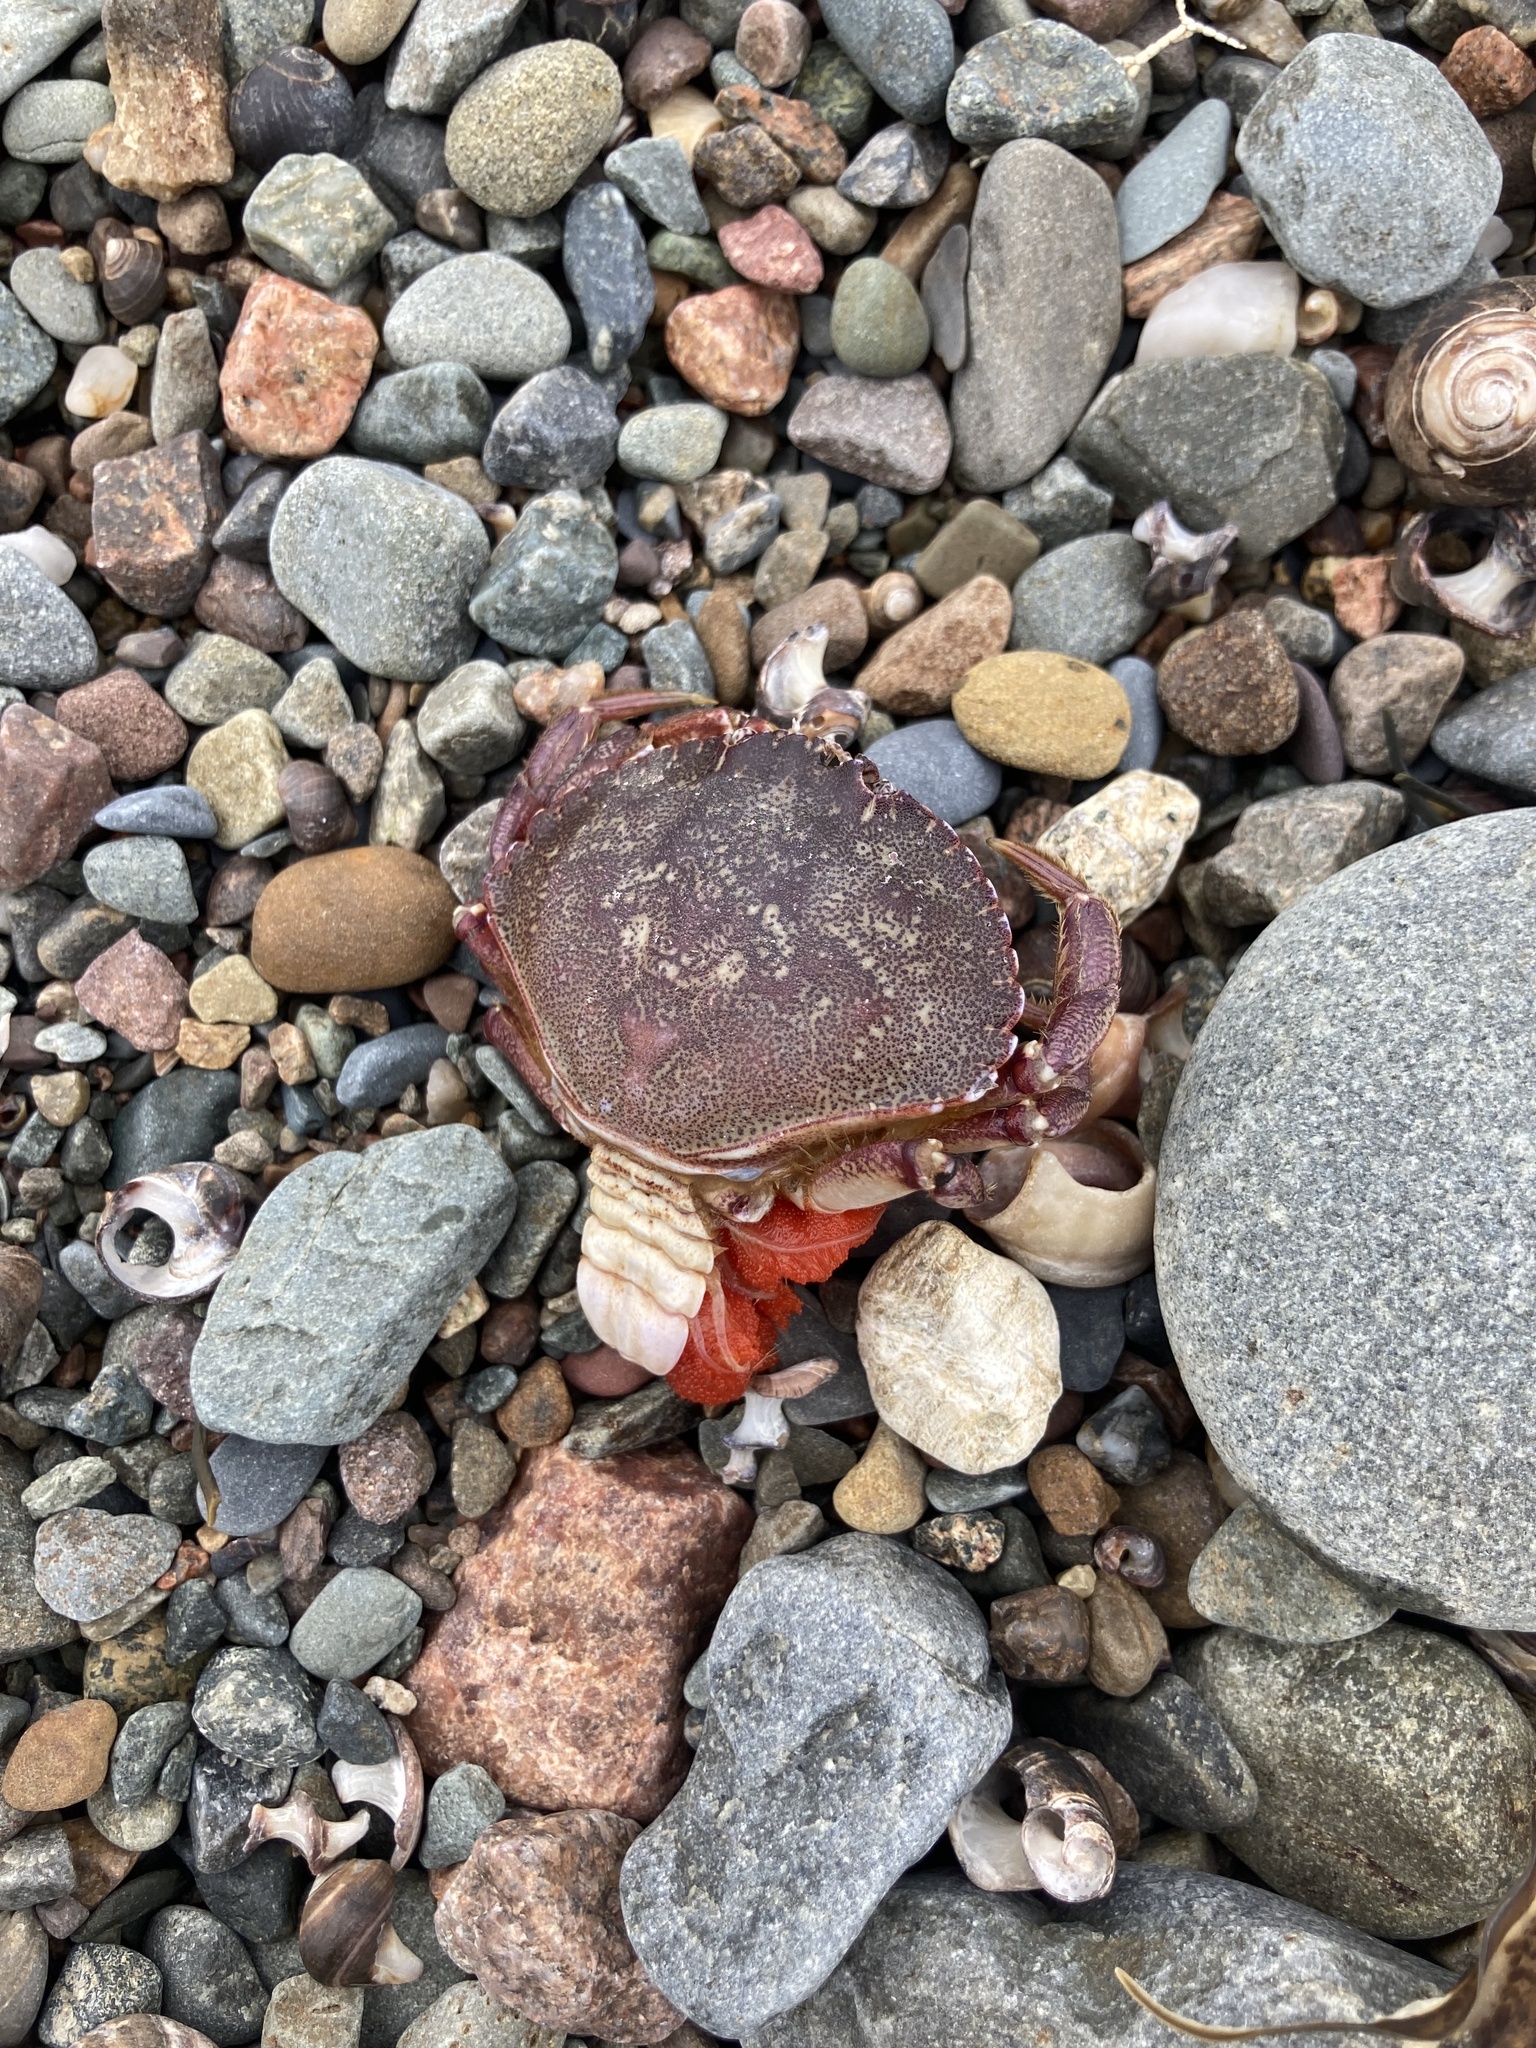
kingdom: Animalia
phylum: Arthropoda
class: Malacostraca
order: Decapoda
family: Cancridae
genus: Cancer
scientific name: Cancer irroratus
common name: Atlantic rock crab
